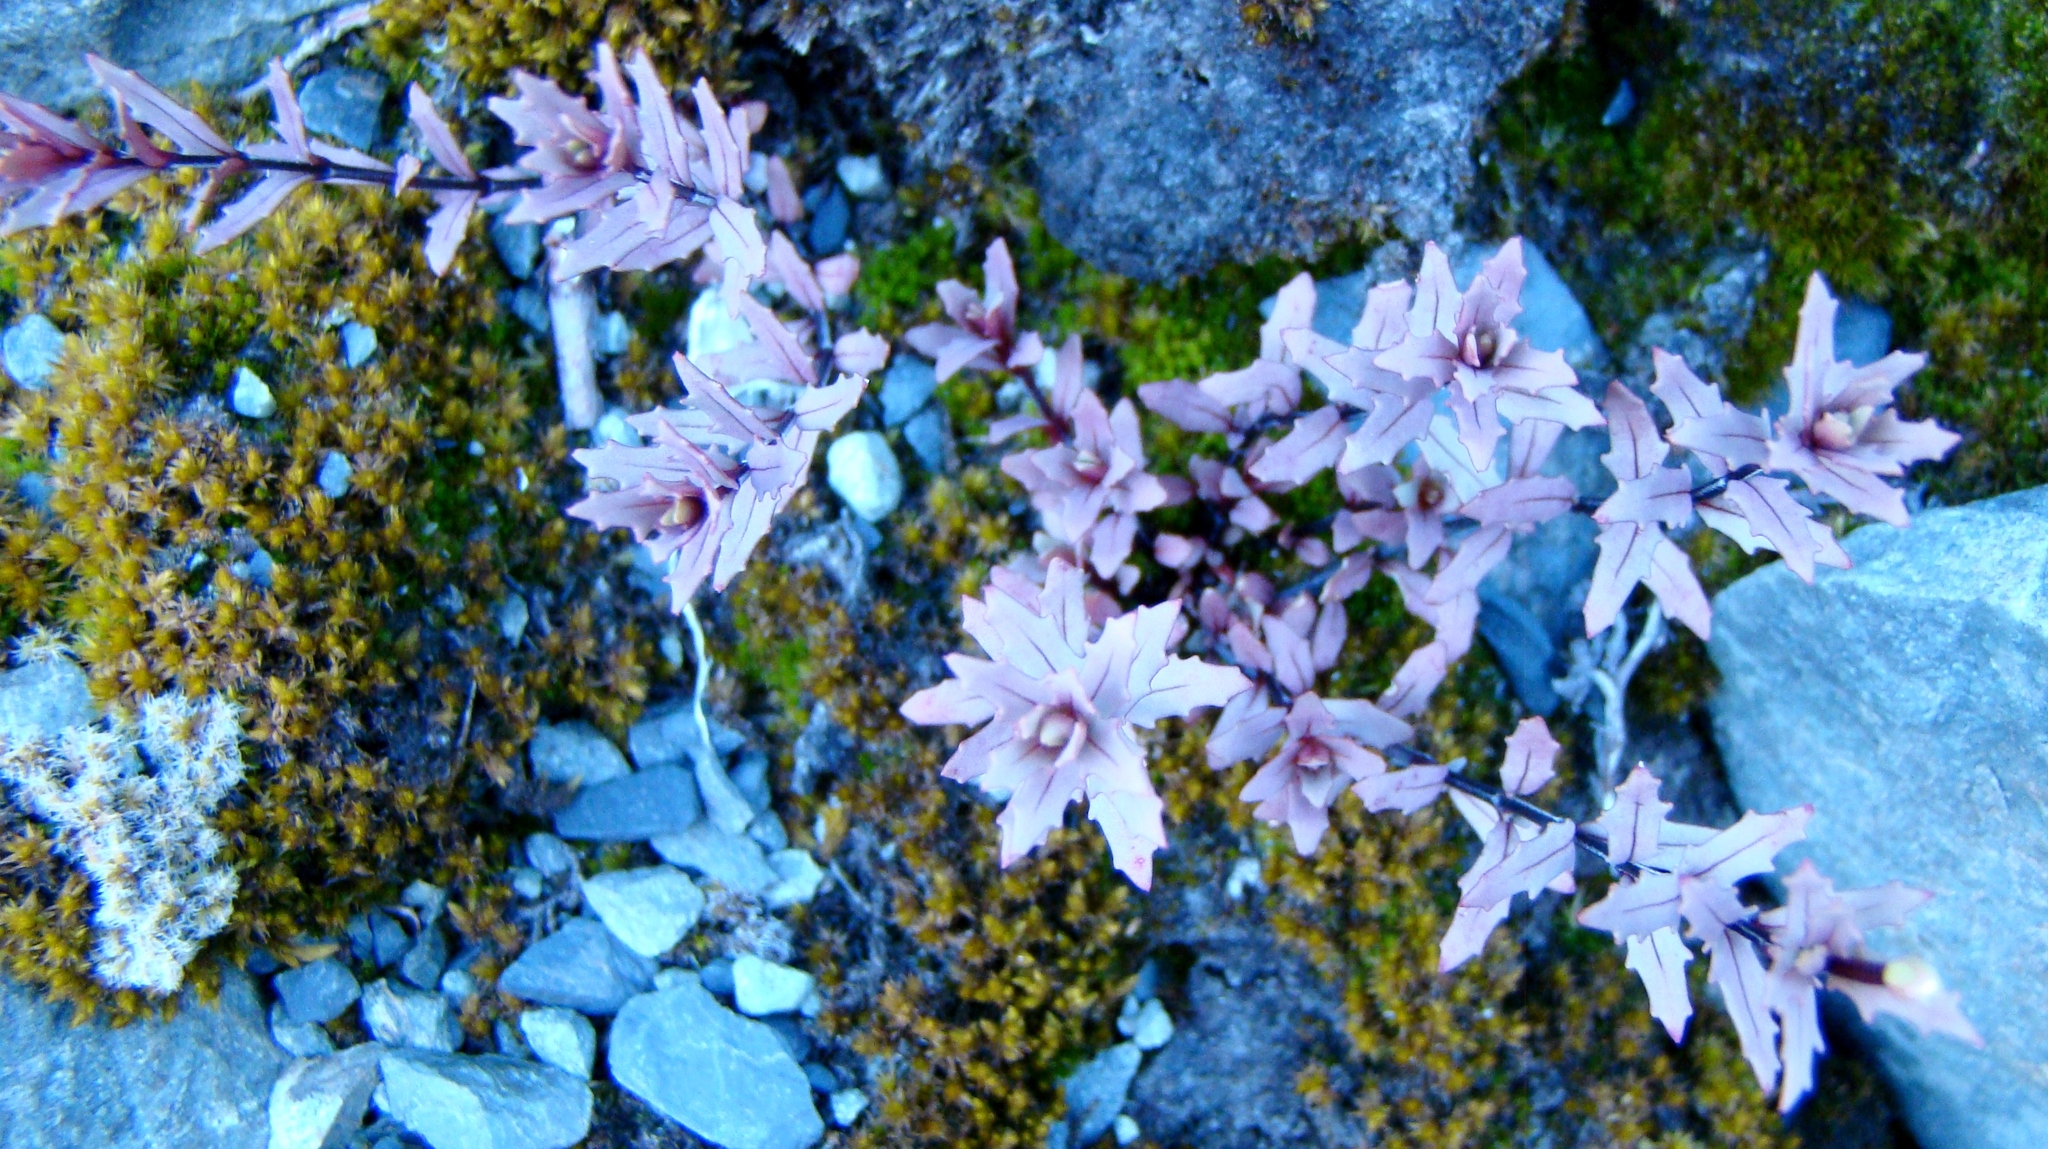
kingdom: Plantae
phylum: Tracheophyta
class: Magnoliopsida
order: Myrtales
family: Onagraceae
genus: Epilobium
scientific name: Epilobium melanocaulon
